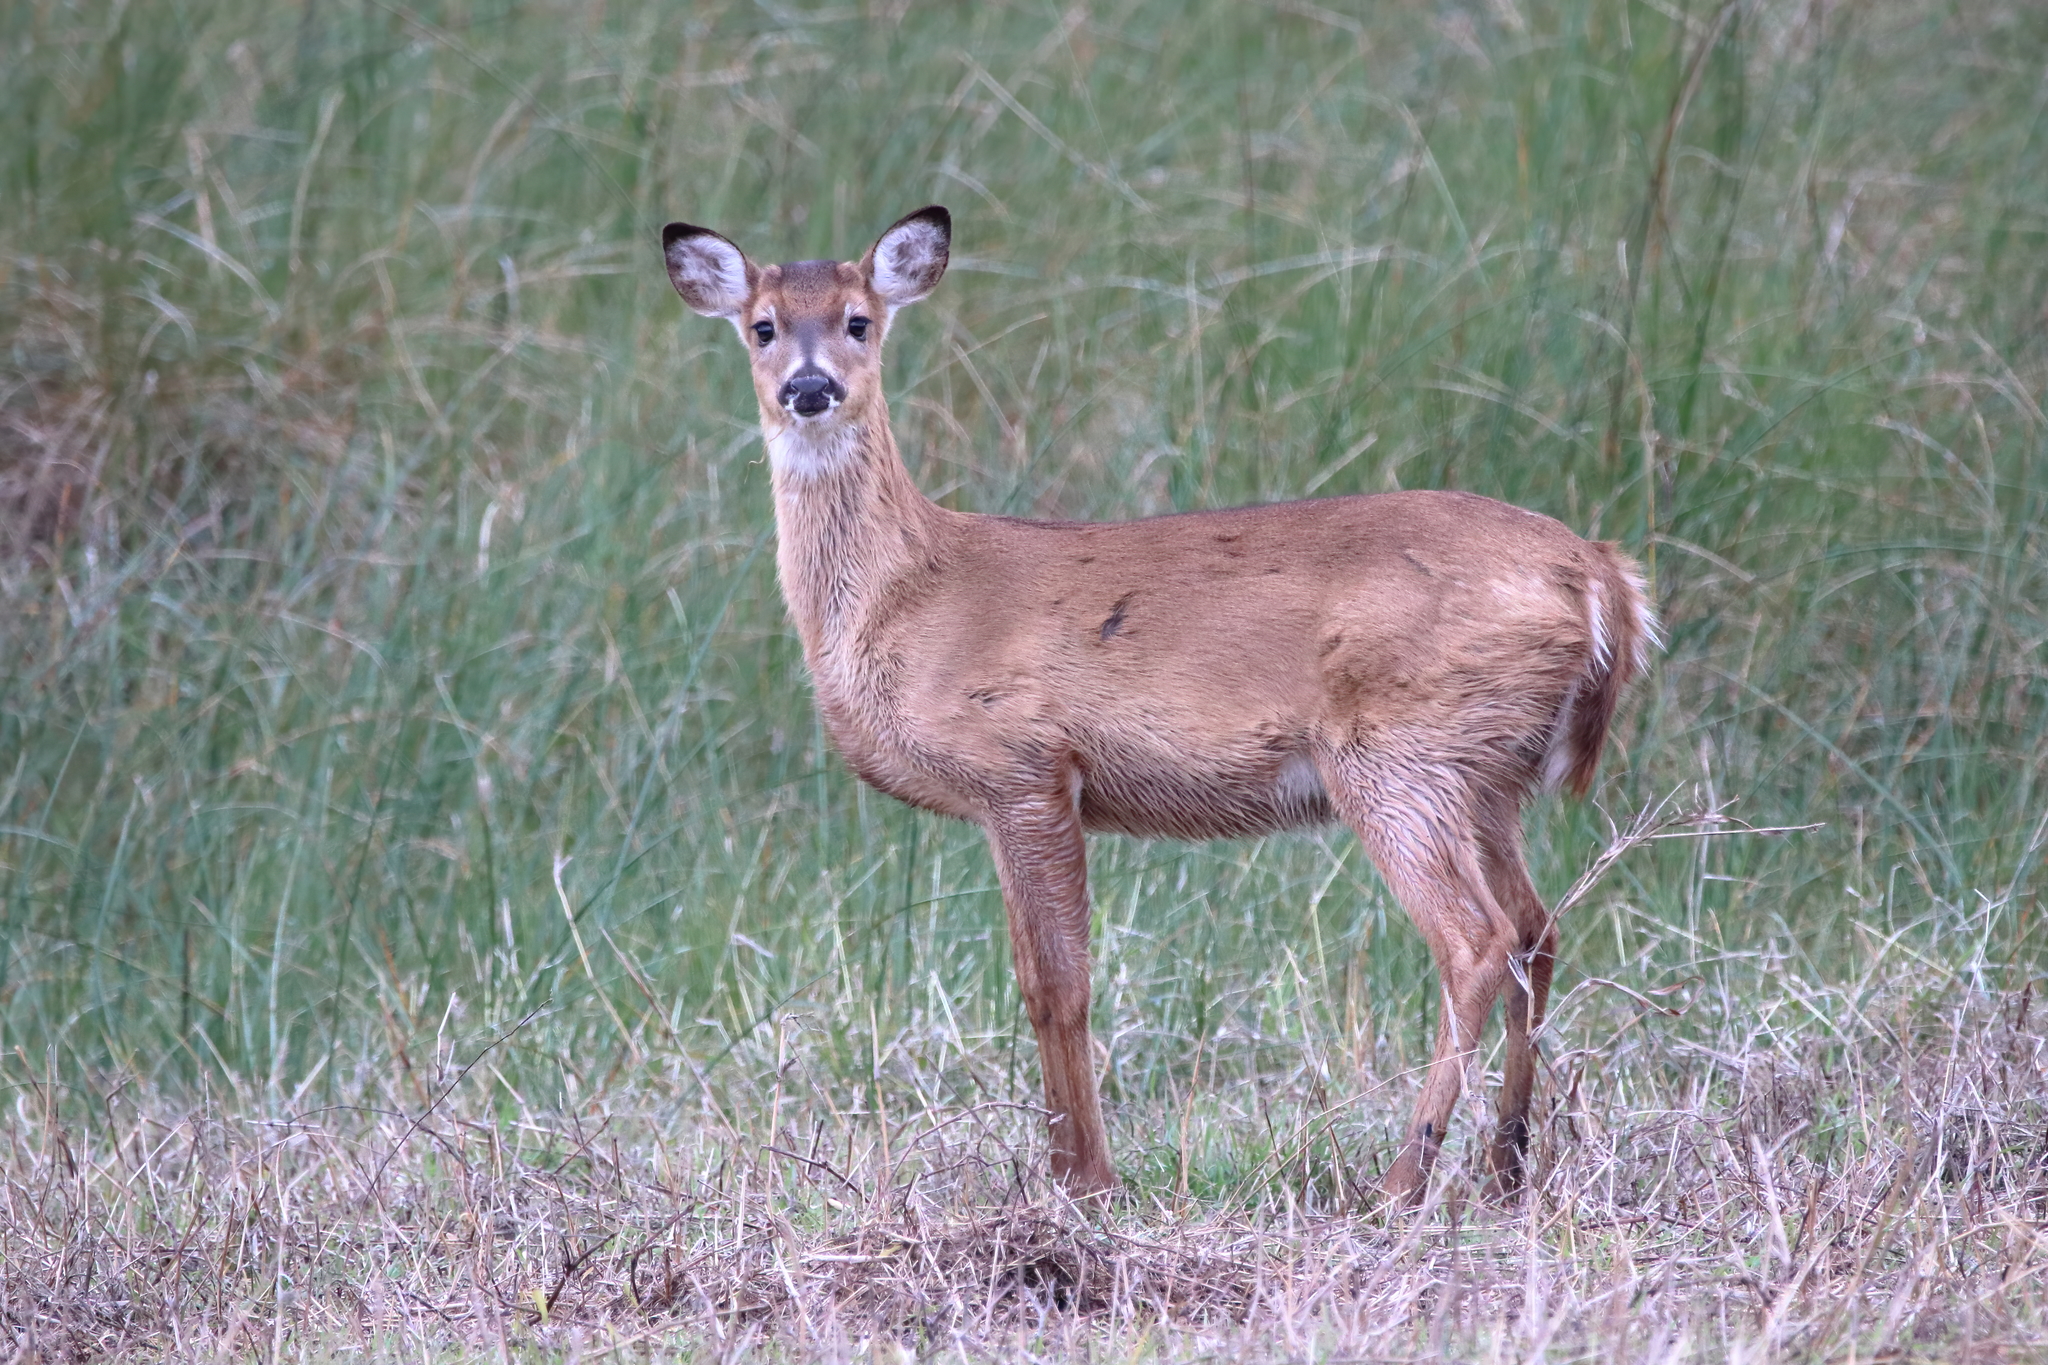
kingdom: Animalia
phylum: Chordata
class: Mammalia
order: Artiodactyla
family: Cervidae
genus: Odocoileus
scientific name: Odocoileus virginianus
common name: White-tailed deer
